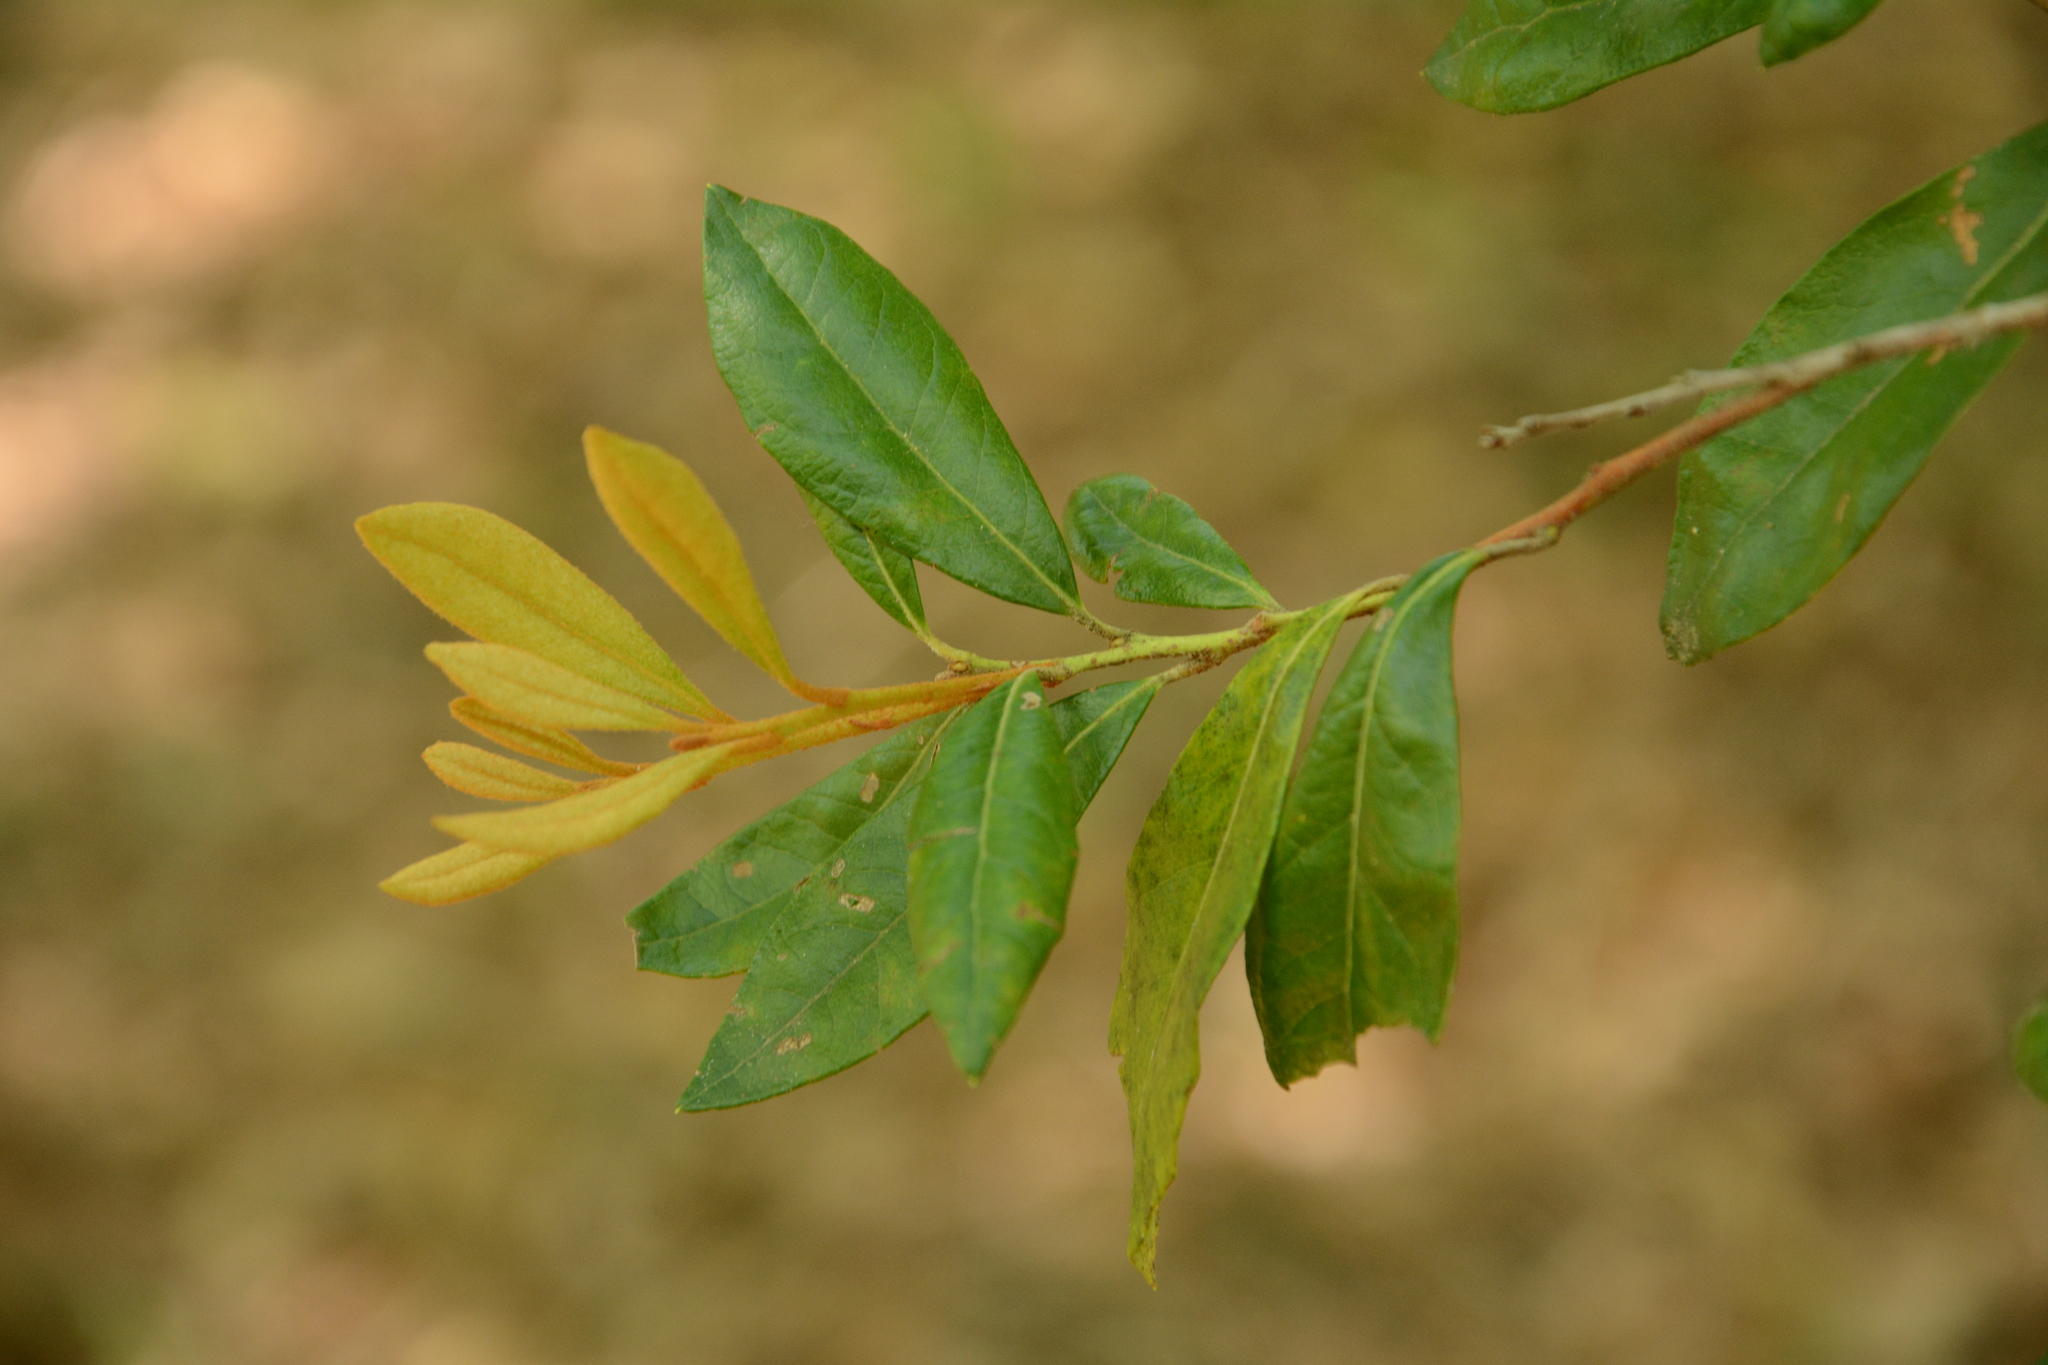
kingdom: Plantae
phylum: Tracheophyta
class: Magnoliopsida
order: Ericales
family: Ericaceae
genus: Lyonia
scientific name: Lyonia ferruginea
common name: Rusty lyonia
